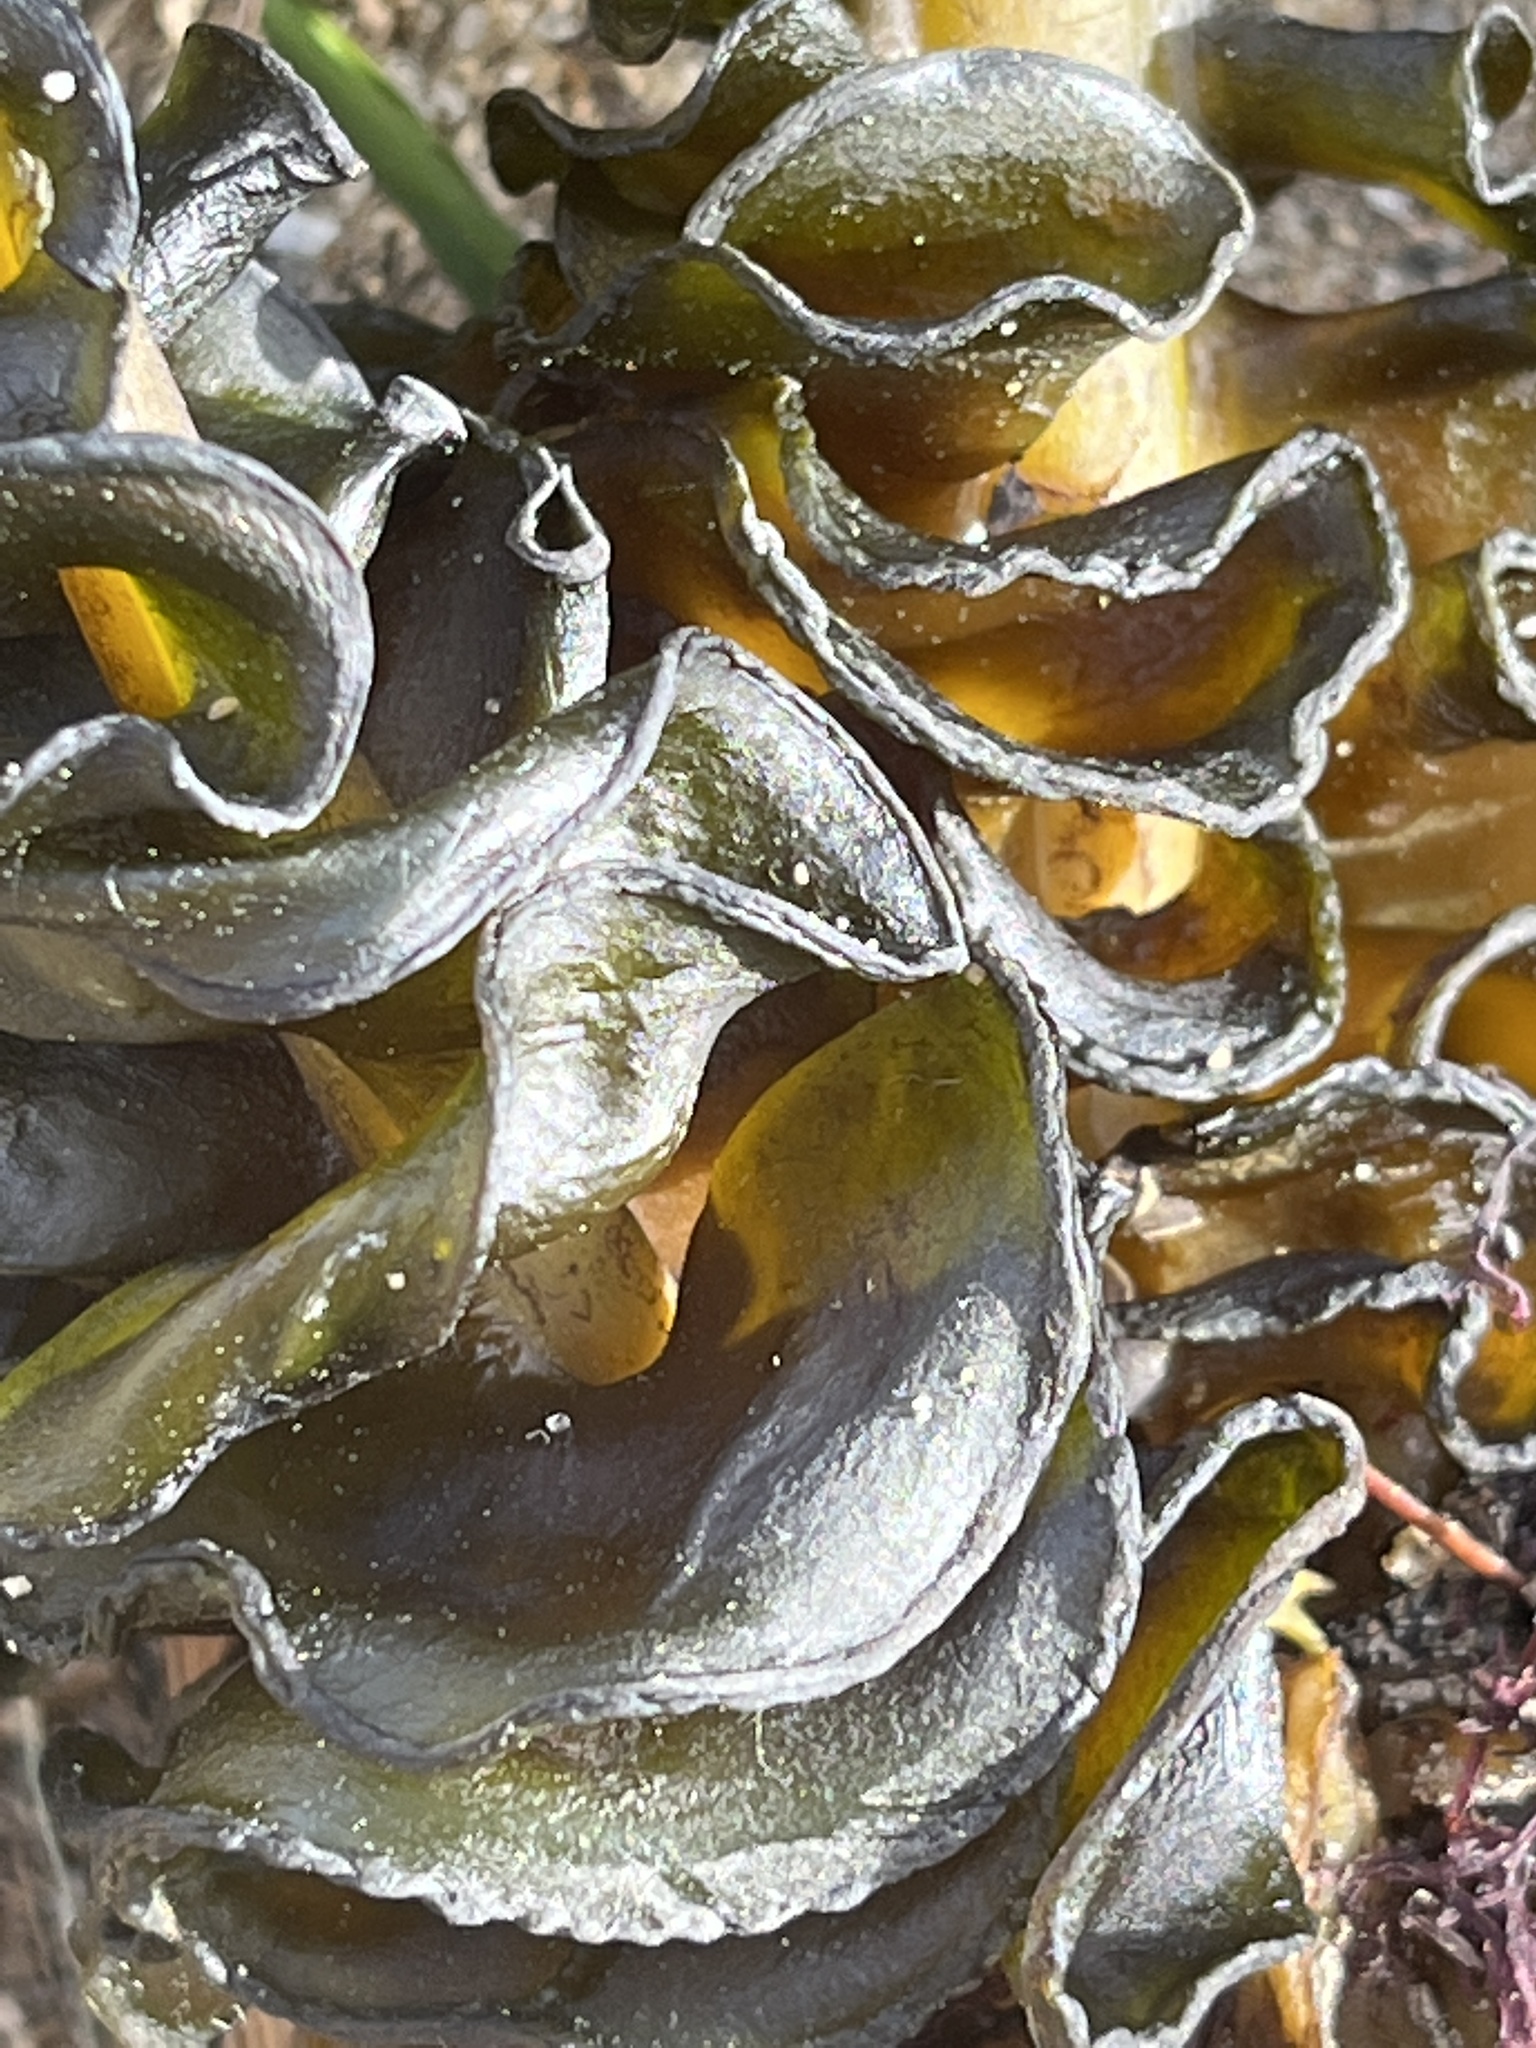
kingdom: Chromista
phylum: Ochrophyta
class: Phaeophyceae
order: Laminariales
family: Alariaceae
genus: Undaria
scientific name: Undaria pinnatifida
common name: Asian kelp
